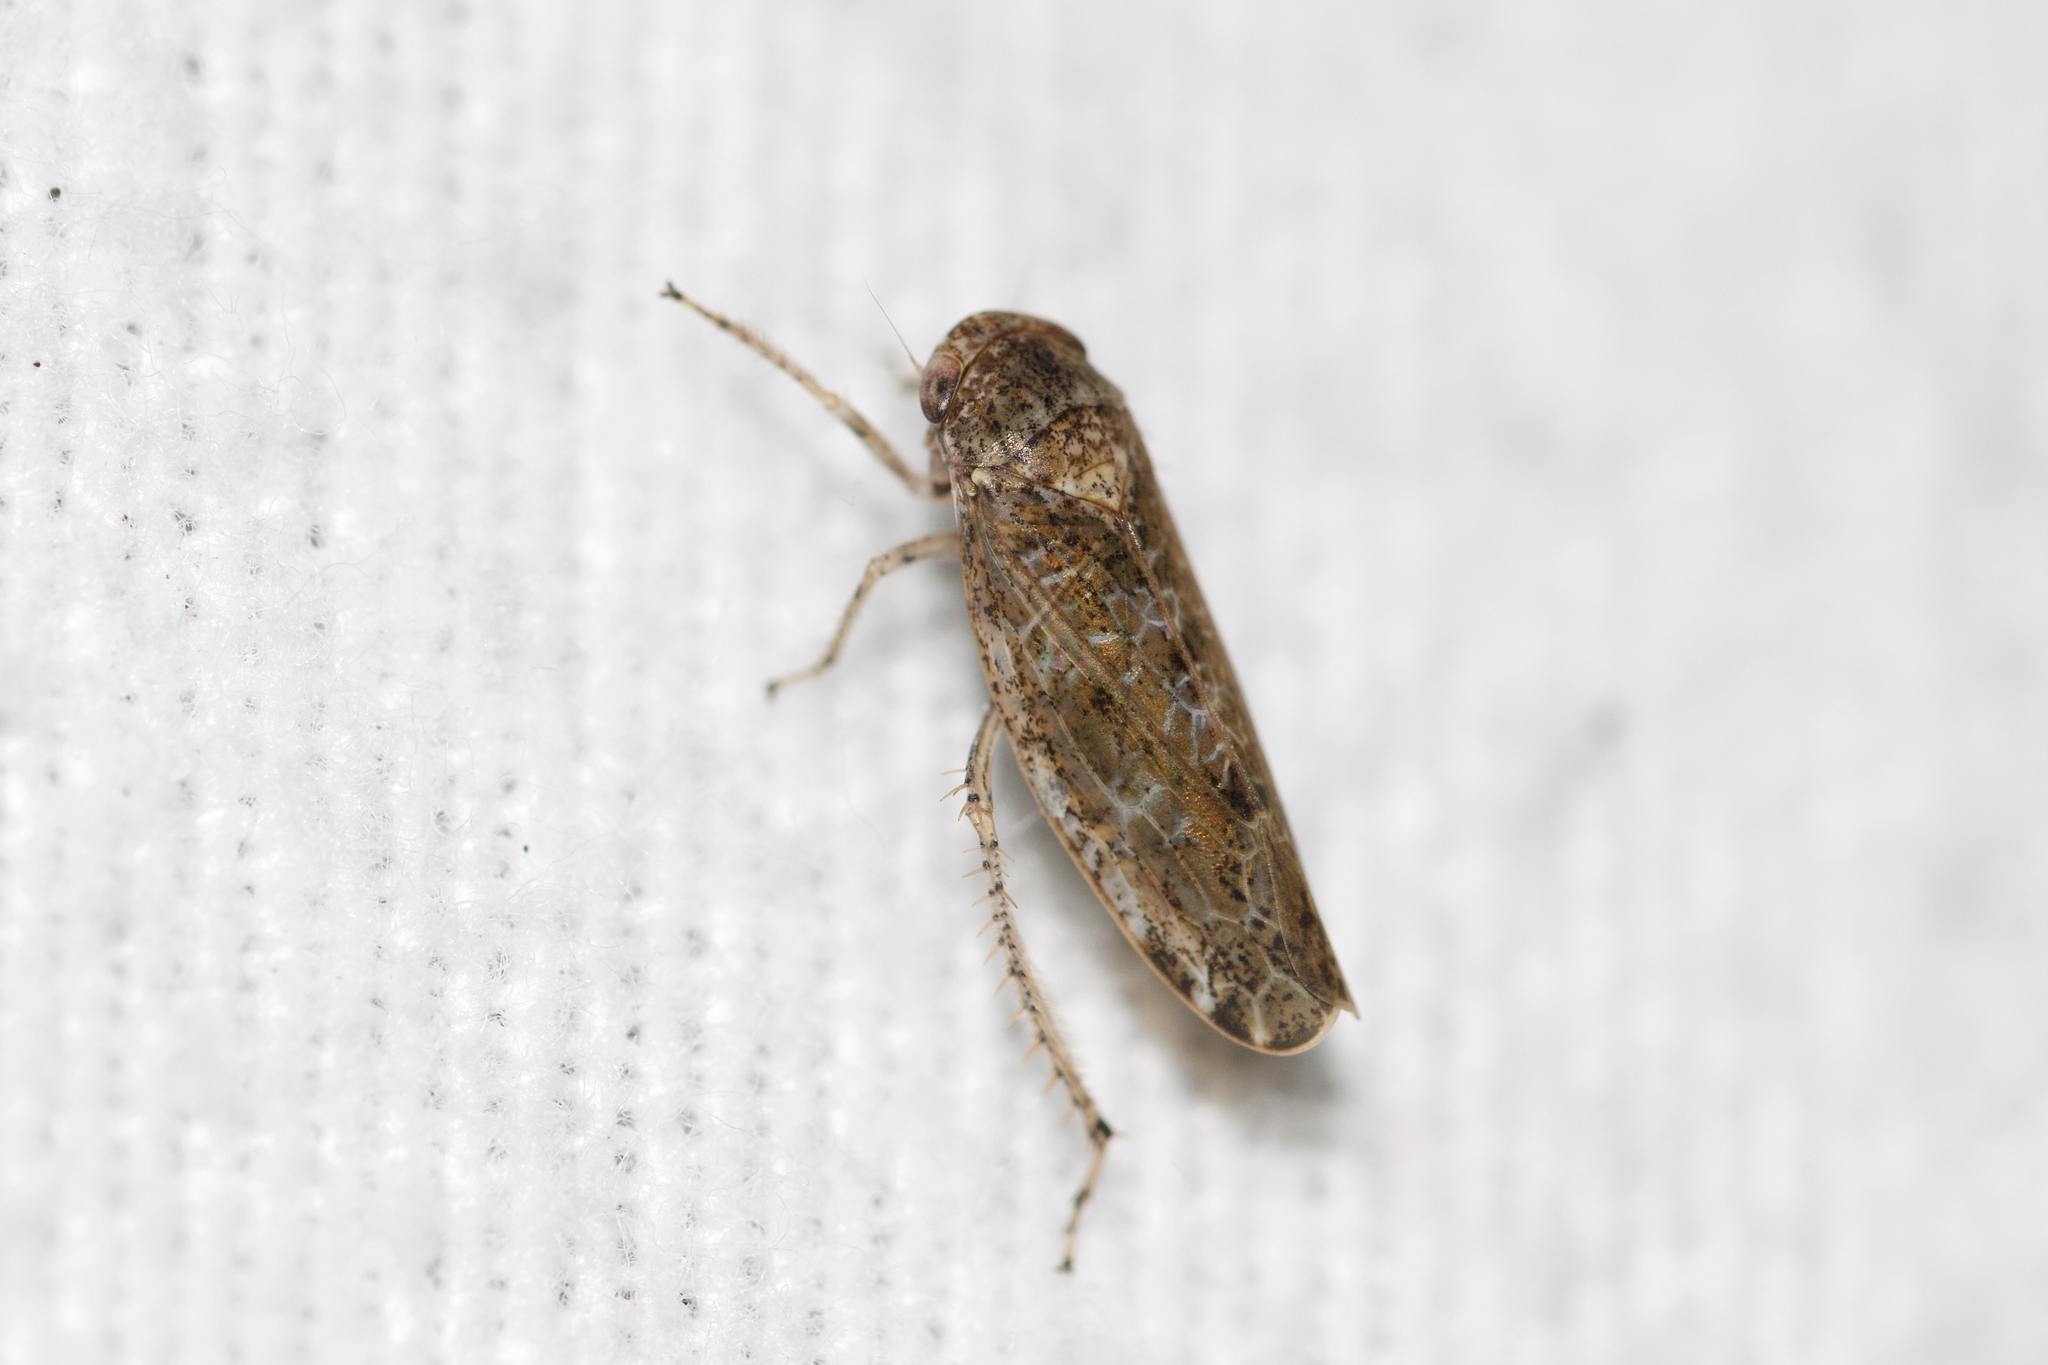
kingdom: Animalia
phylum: Arthropoda
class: Insecta
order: Hemiptera
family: Cicadellidae
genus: Allygidius
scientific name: Allygidius atomarius
